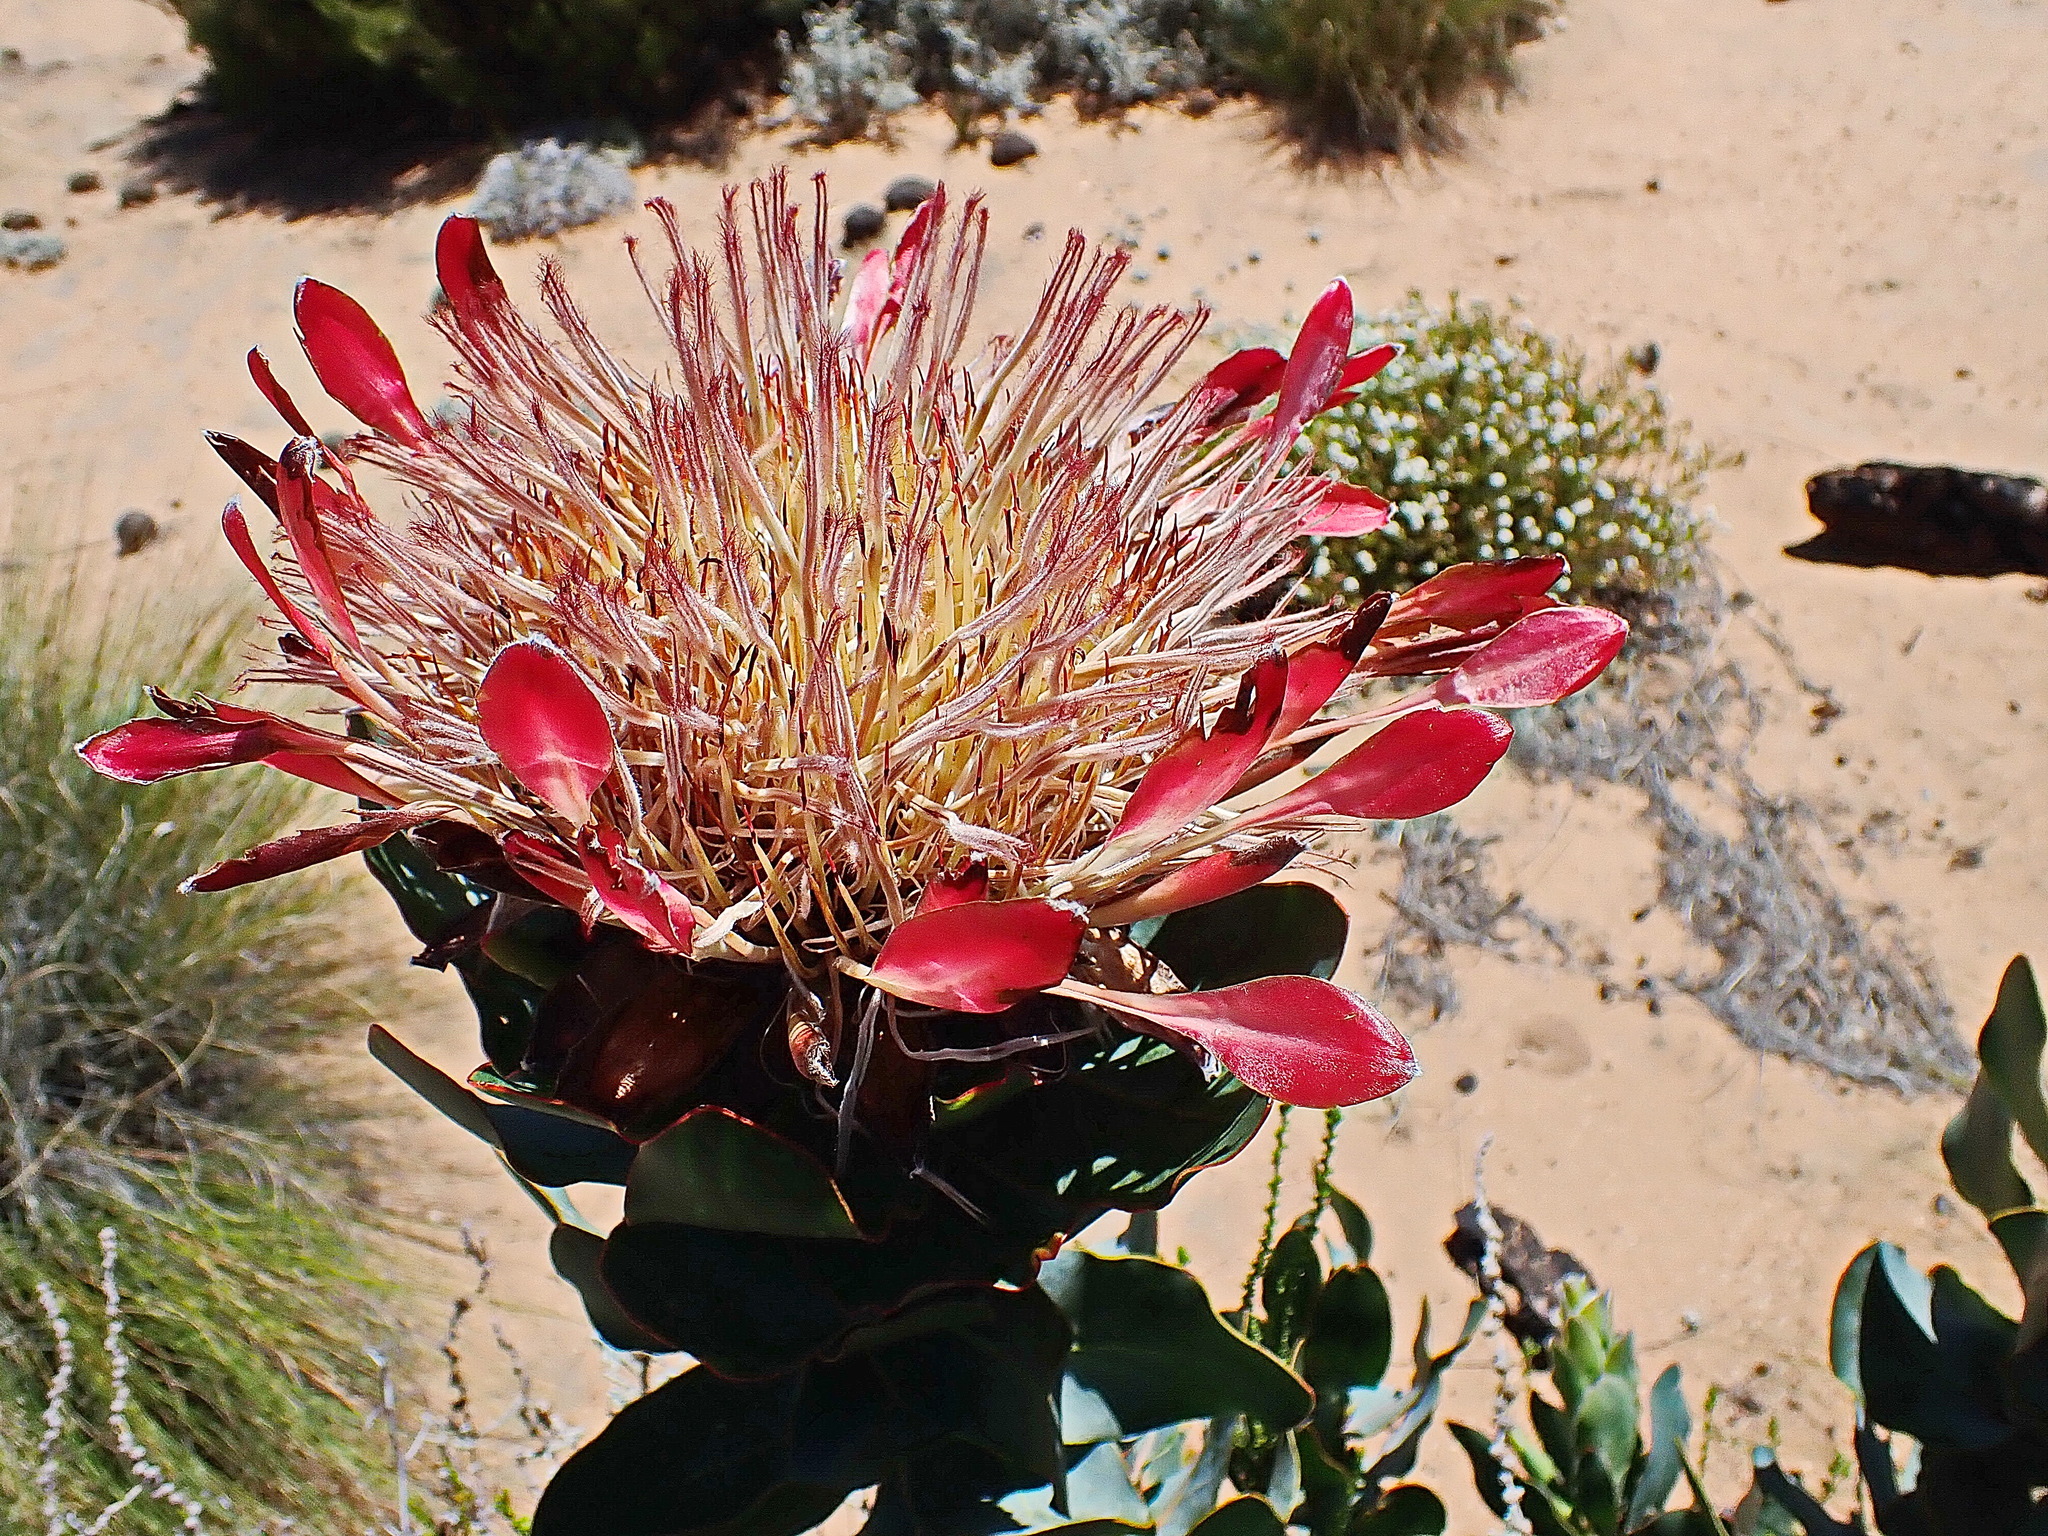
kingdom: Plantae
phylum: Tracheophyta
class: Magnoliopsida
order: Proteales
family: Proteaceae
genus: Protea
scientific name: Protea eximia
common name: Broad-leaved sugarbush
